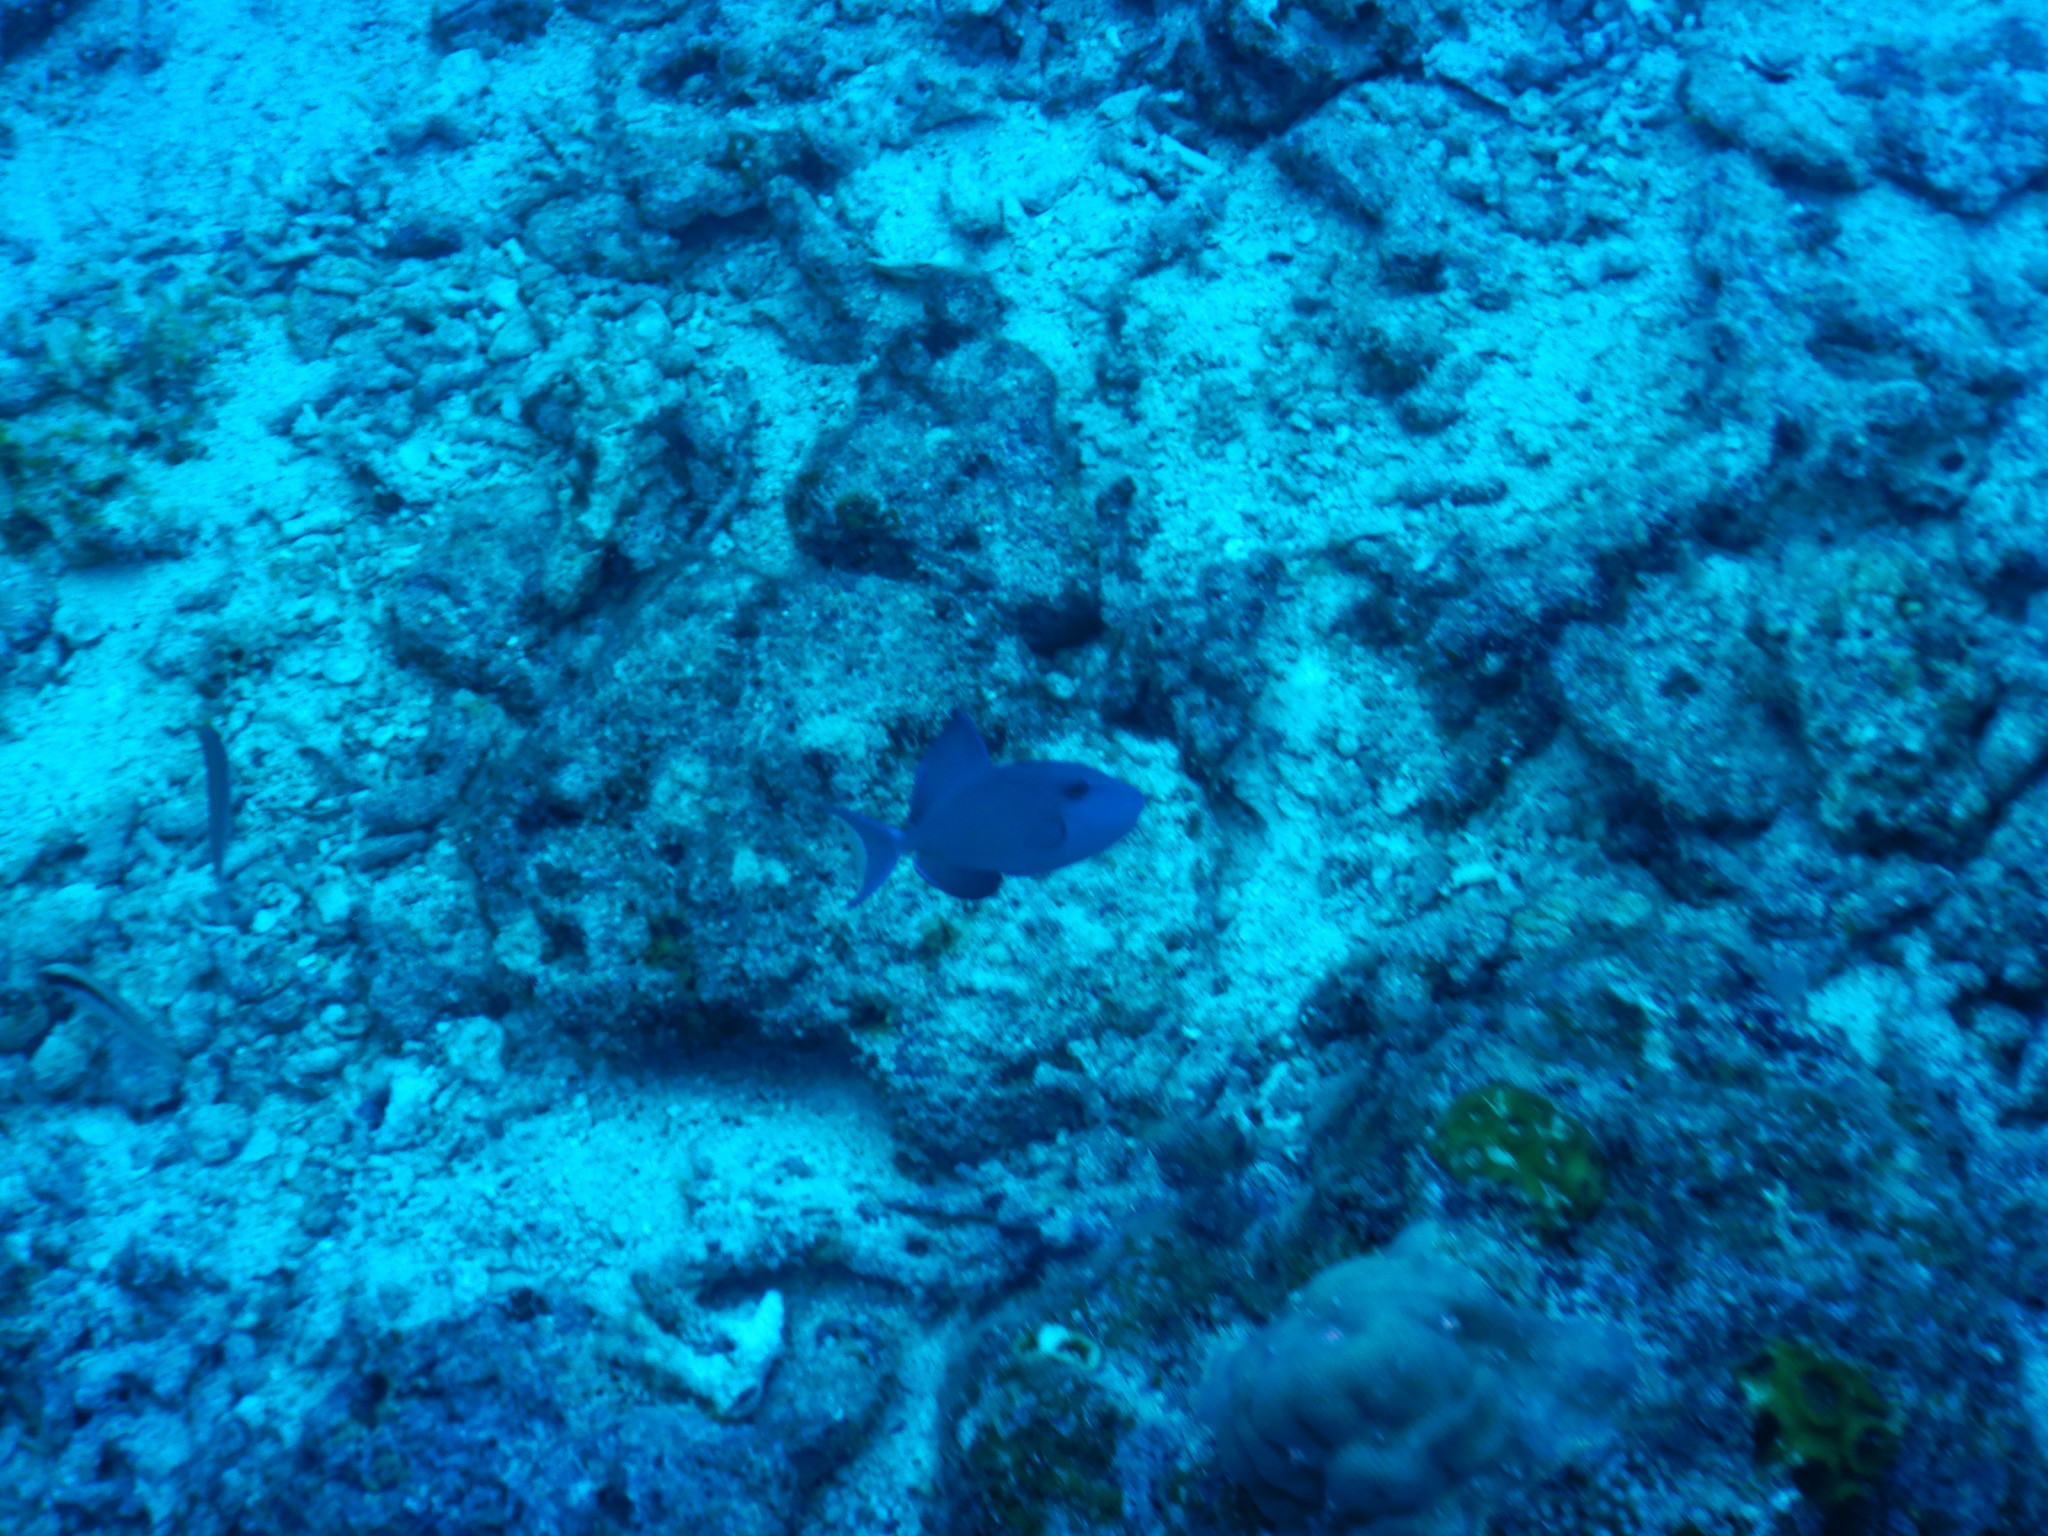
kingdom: Animalia
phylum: Chordata
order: Tetraodontiformes
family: Balistidae
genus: Odonus
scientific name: Odonus niger
